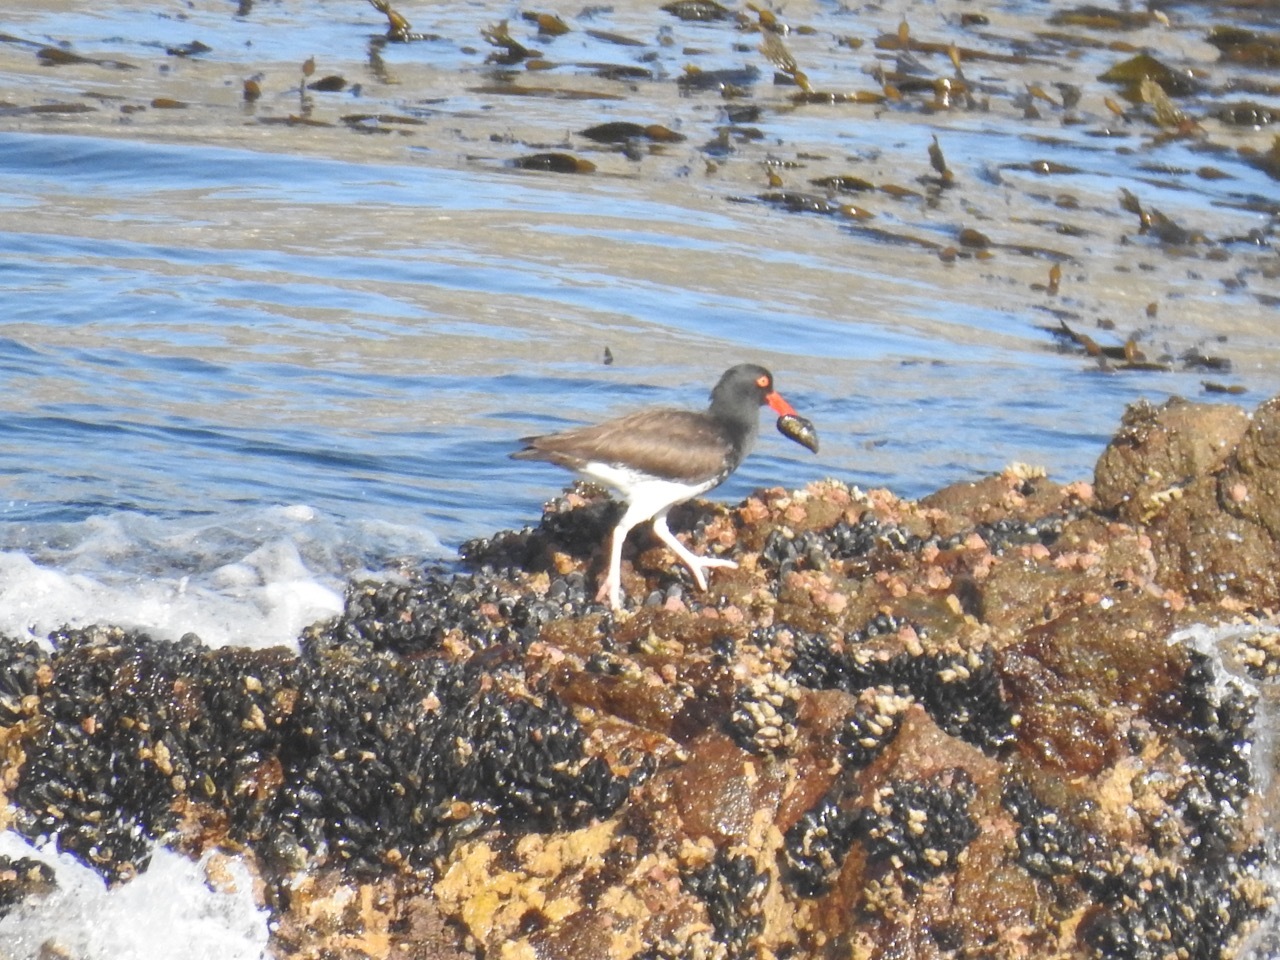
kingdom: Animalia
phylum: Chordata
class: Aves
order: Charadriiformes
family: Haematopodidae
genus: Haematopus
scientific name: Haematopus palliatus
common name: American oystercatcher
